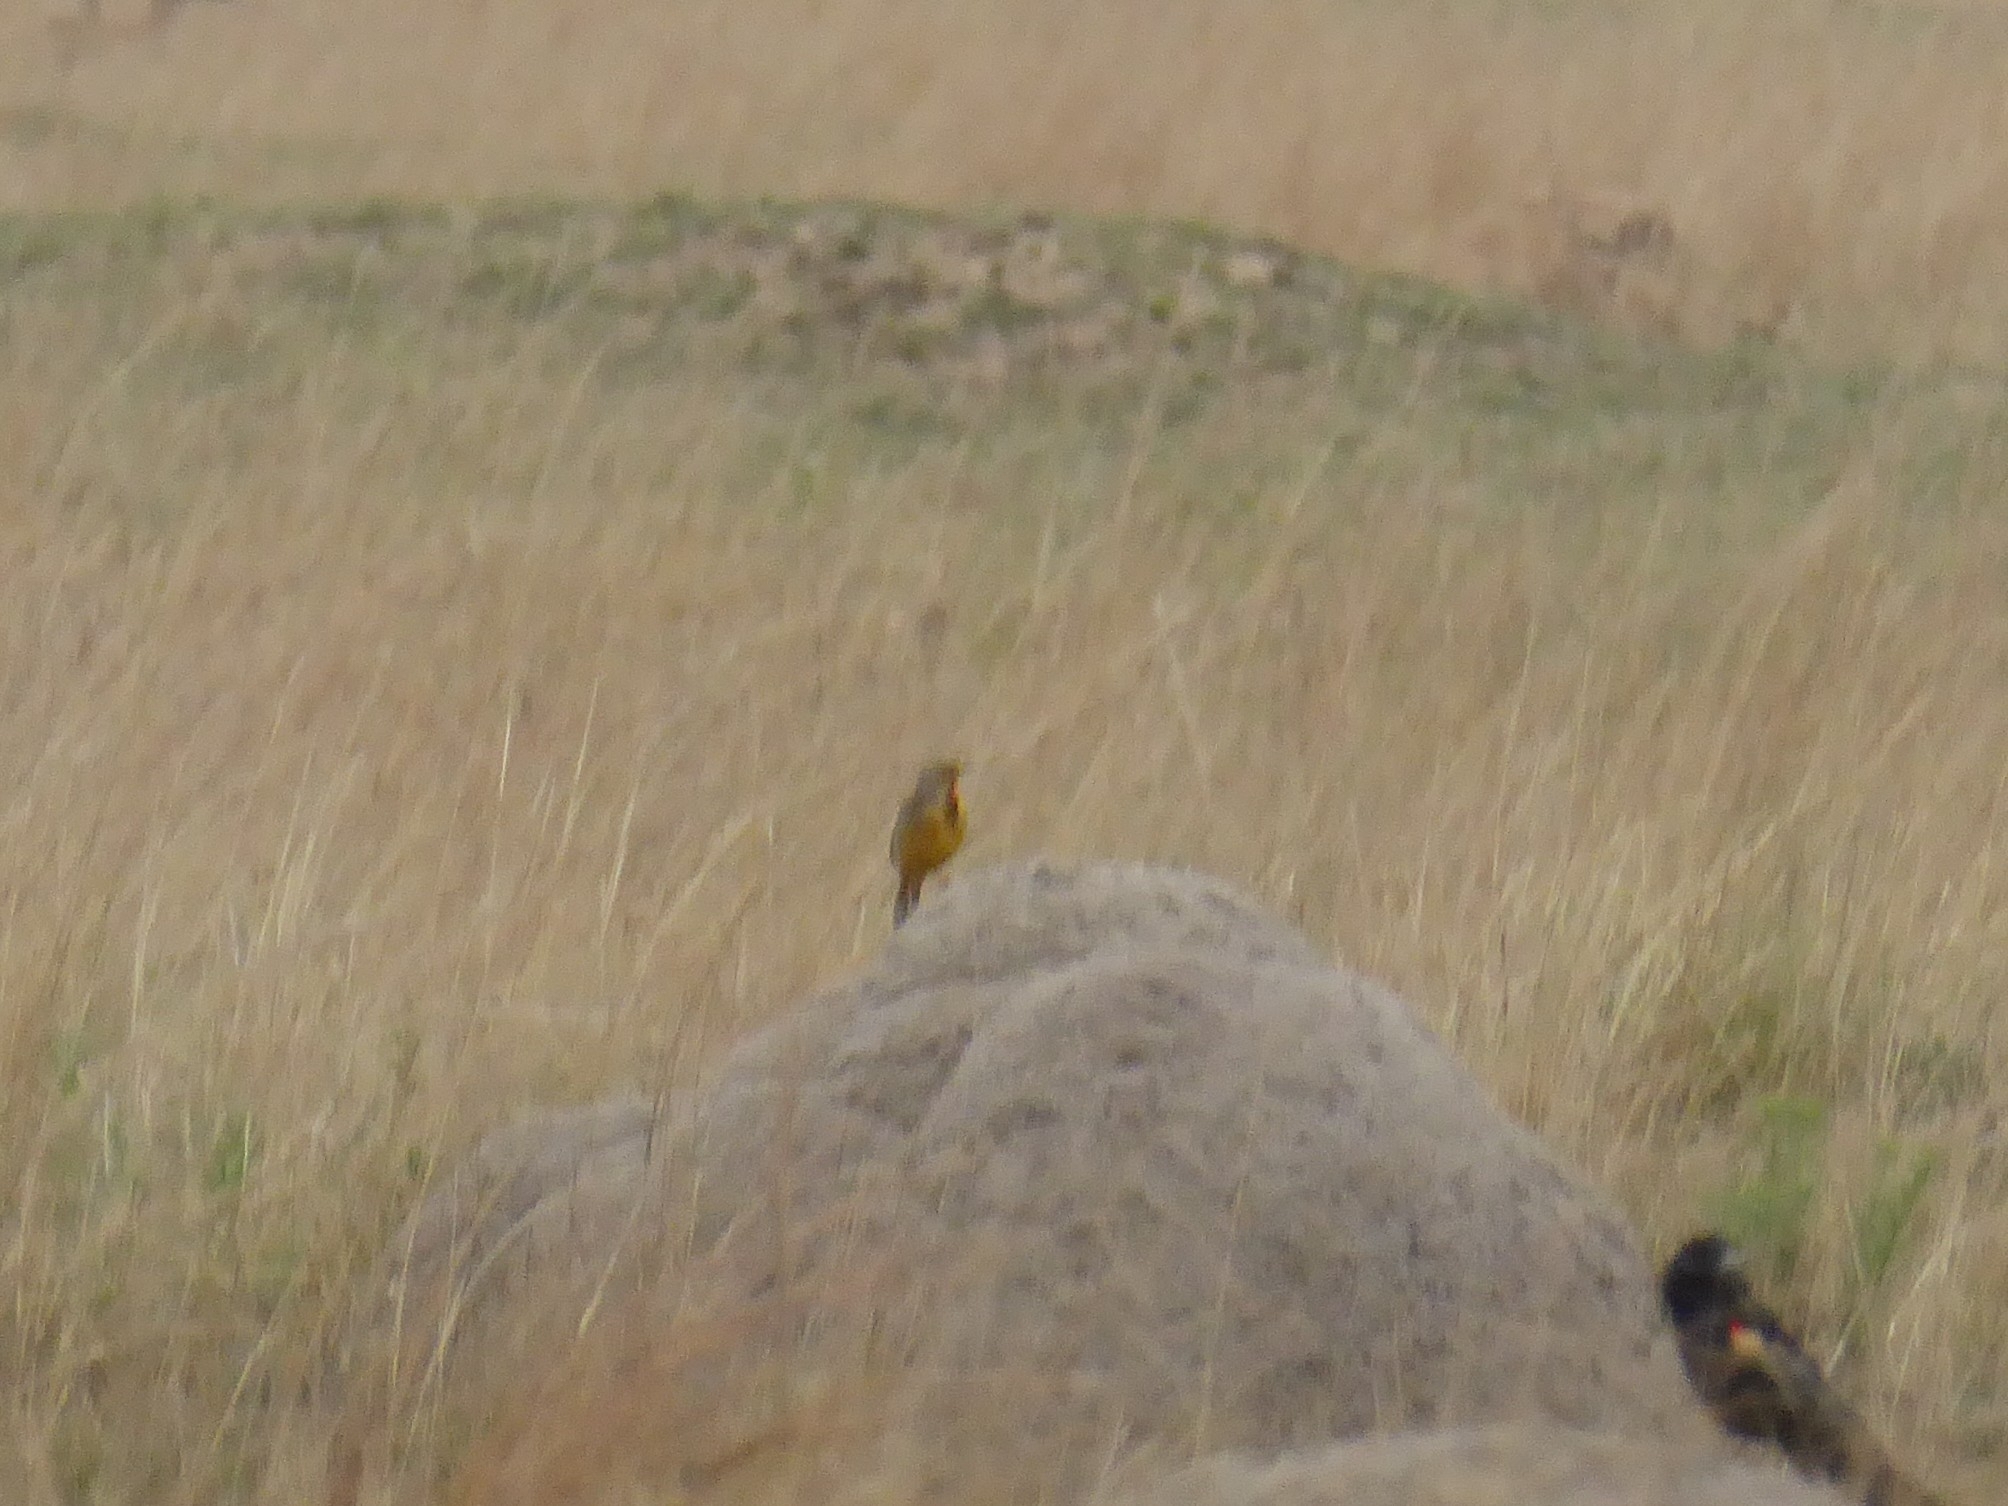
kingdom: Animalia
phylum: Chordata
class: Aves
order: Passeriformes
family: Motacillidae
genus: Macronyx
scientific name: Macronyx capensis
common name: Cape longclaw
